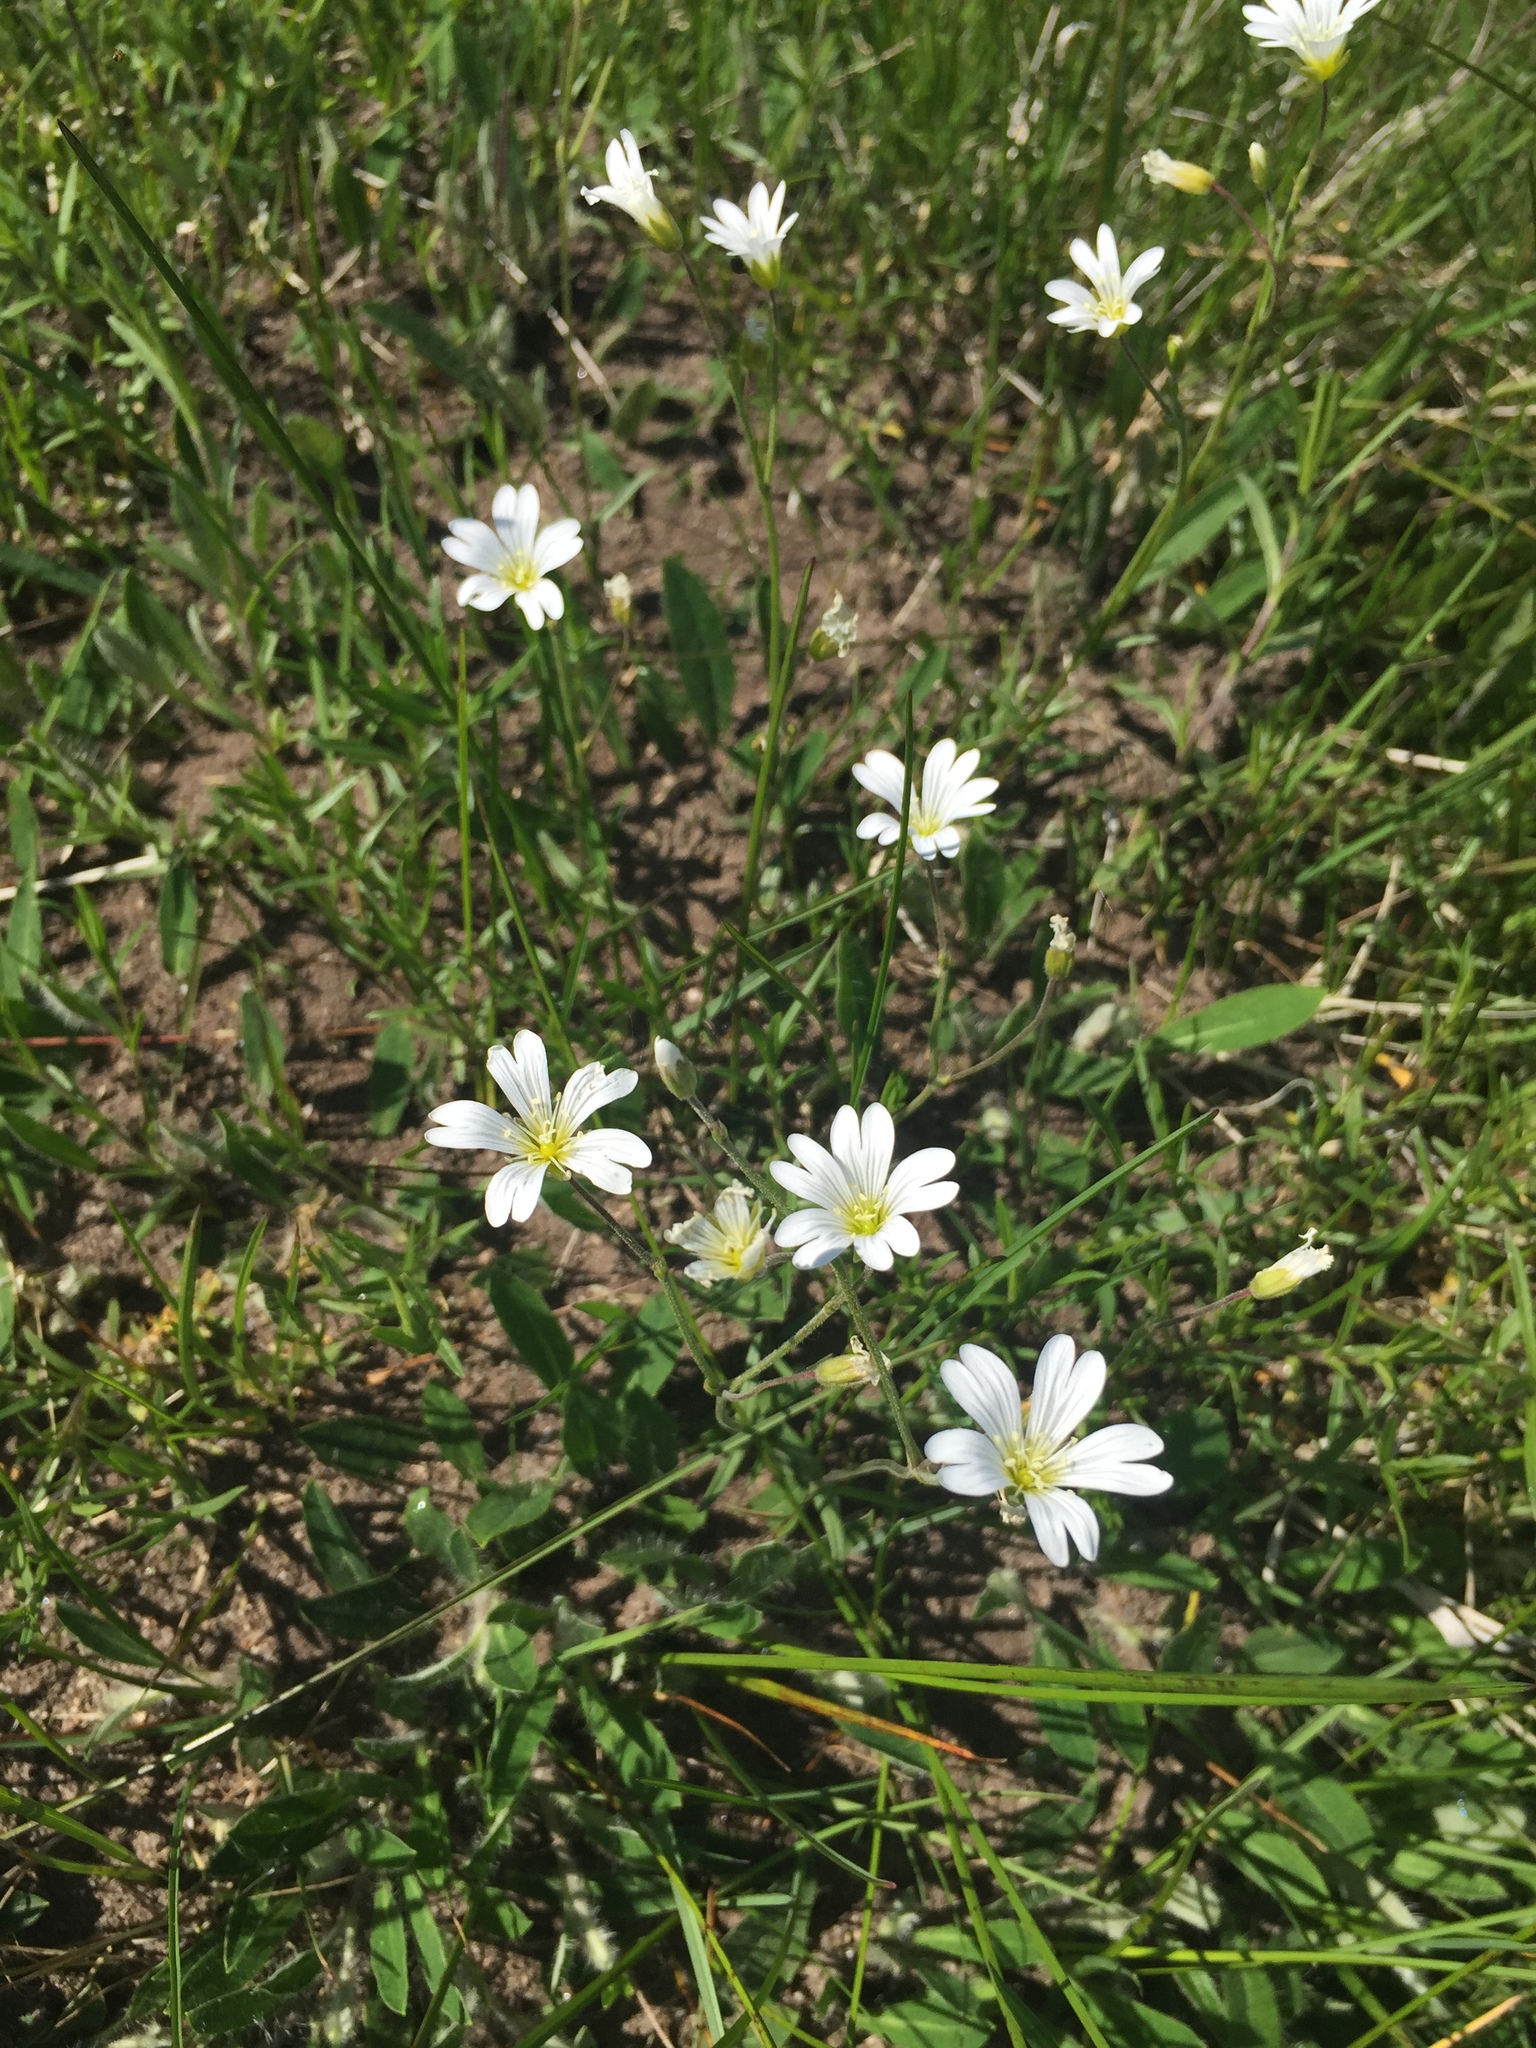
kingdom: Plantae
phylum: Tracheophyta
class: Magnoliopsida
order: Caryophyllales
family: Caryophyllaceae
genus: Cerastium
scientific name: Cerastium arvense
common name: Field mouse-ear
